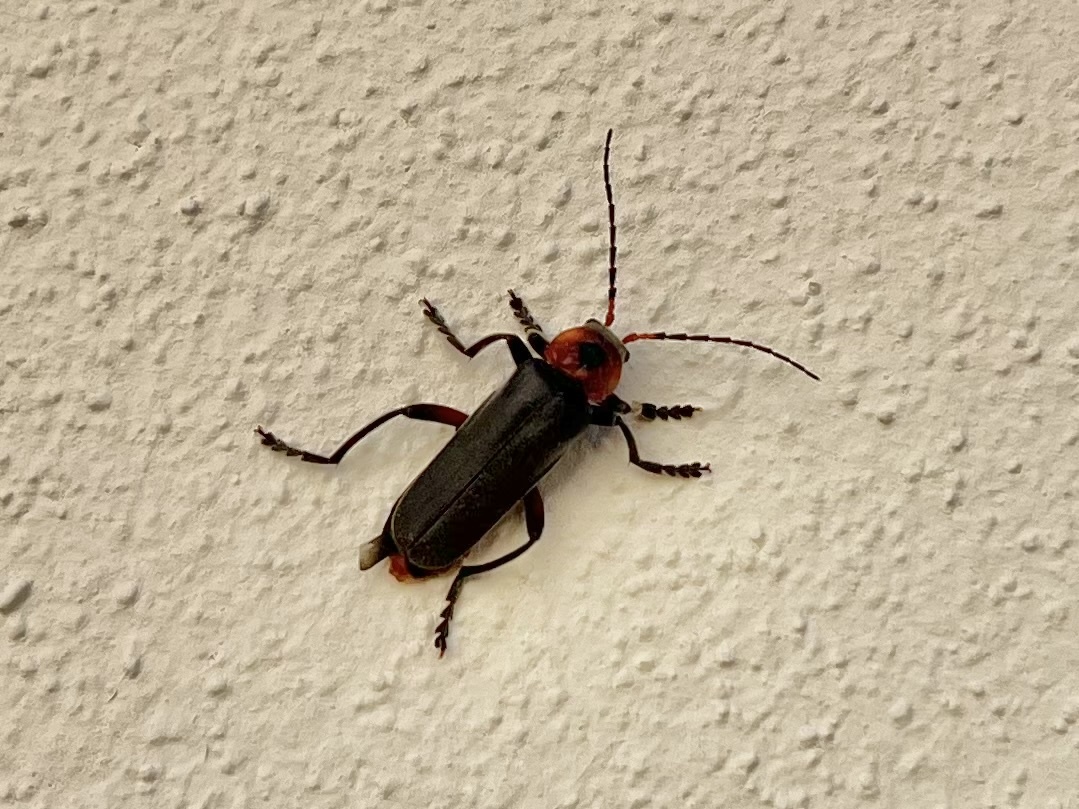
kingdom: Animalia
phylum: Arthropoda
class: Insecta
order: Coleoptera
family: Cantharidae
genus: Cantharis
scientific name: Cantharis rustica
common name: Soldier beetle
